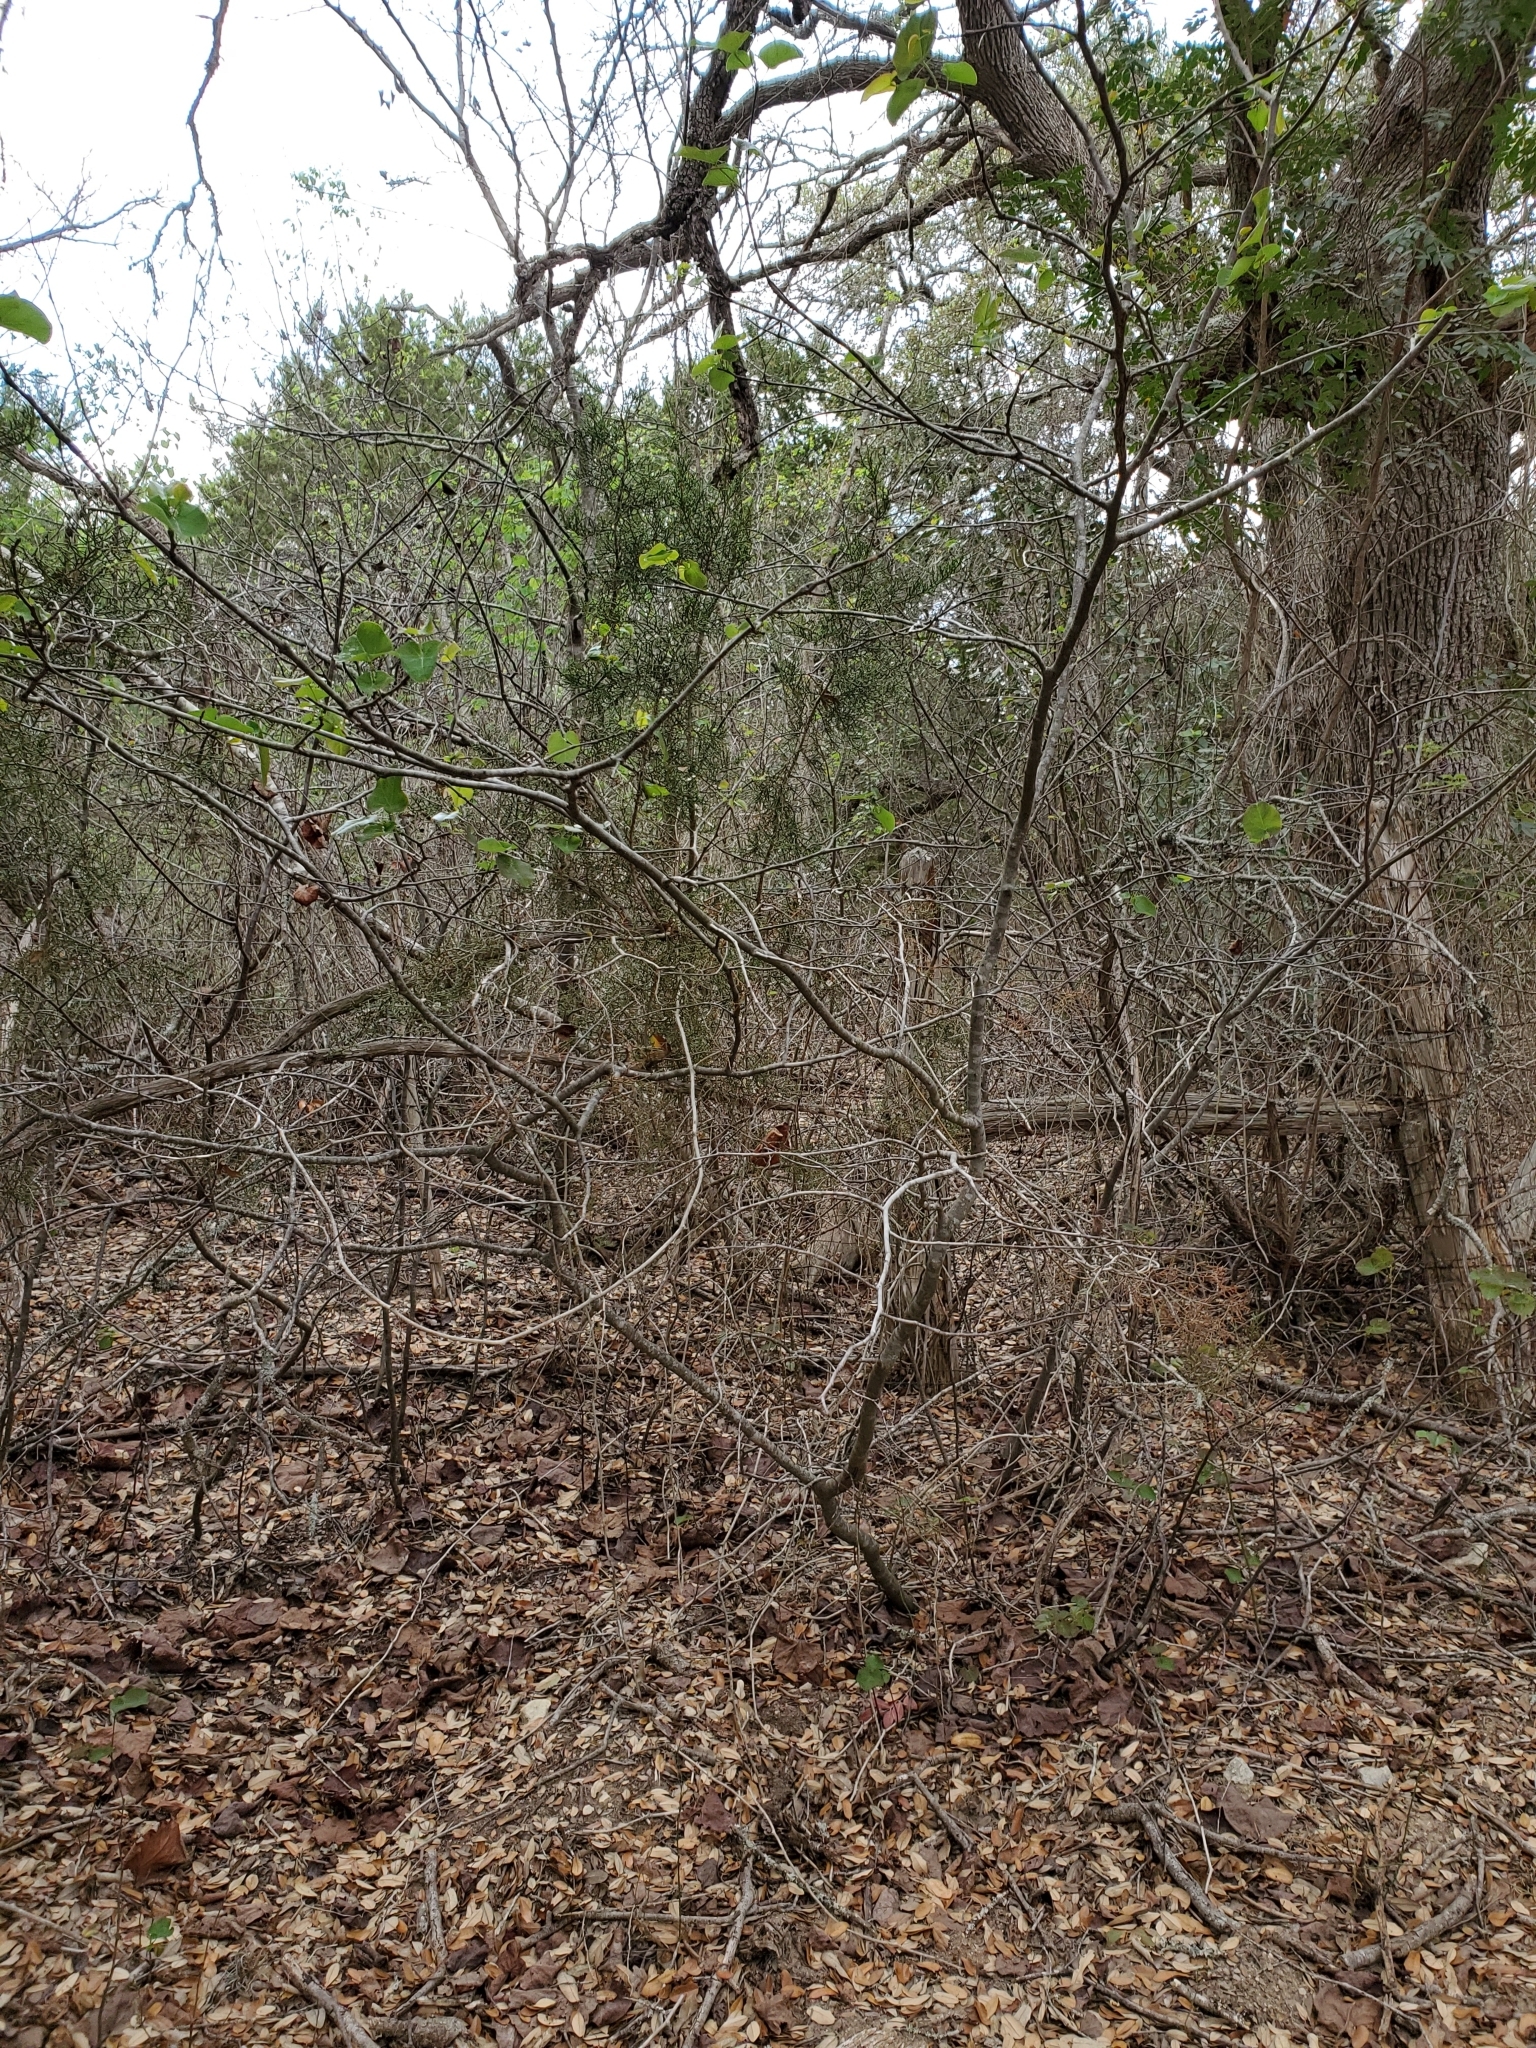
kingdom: Plantae
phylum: Tracheophyta
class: Magnoliopsida
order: Fabales
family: Fabaceae
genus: Cercis
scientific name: Cercis canadensis
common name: Eastern redbud
